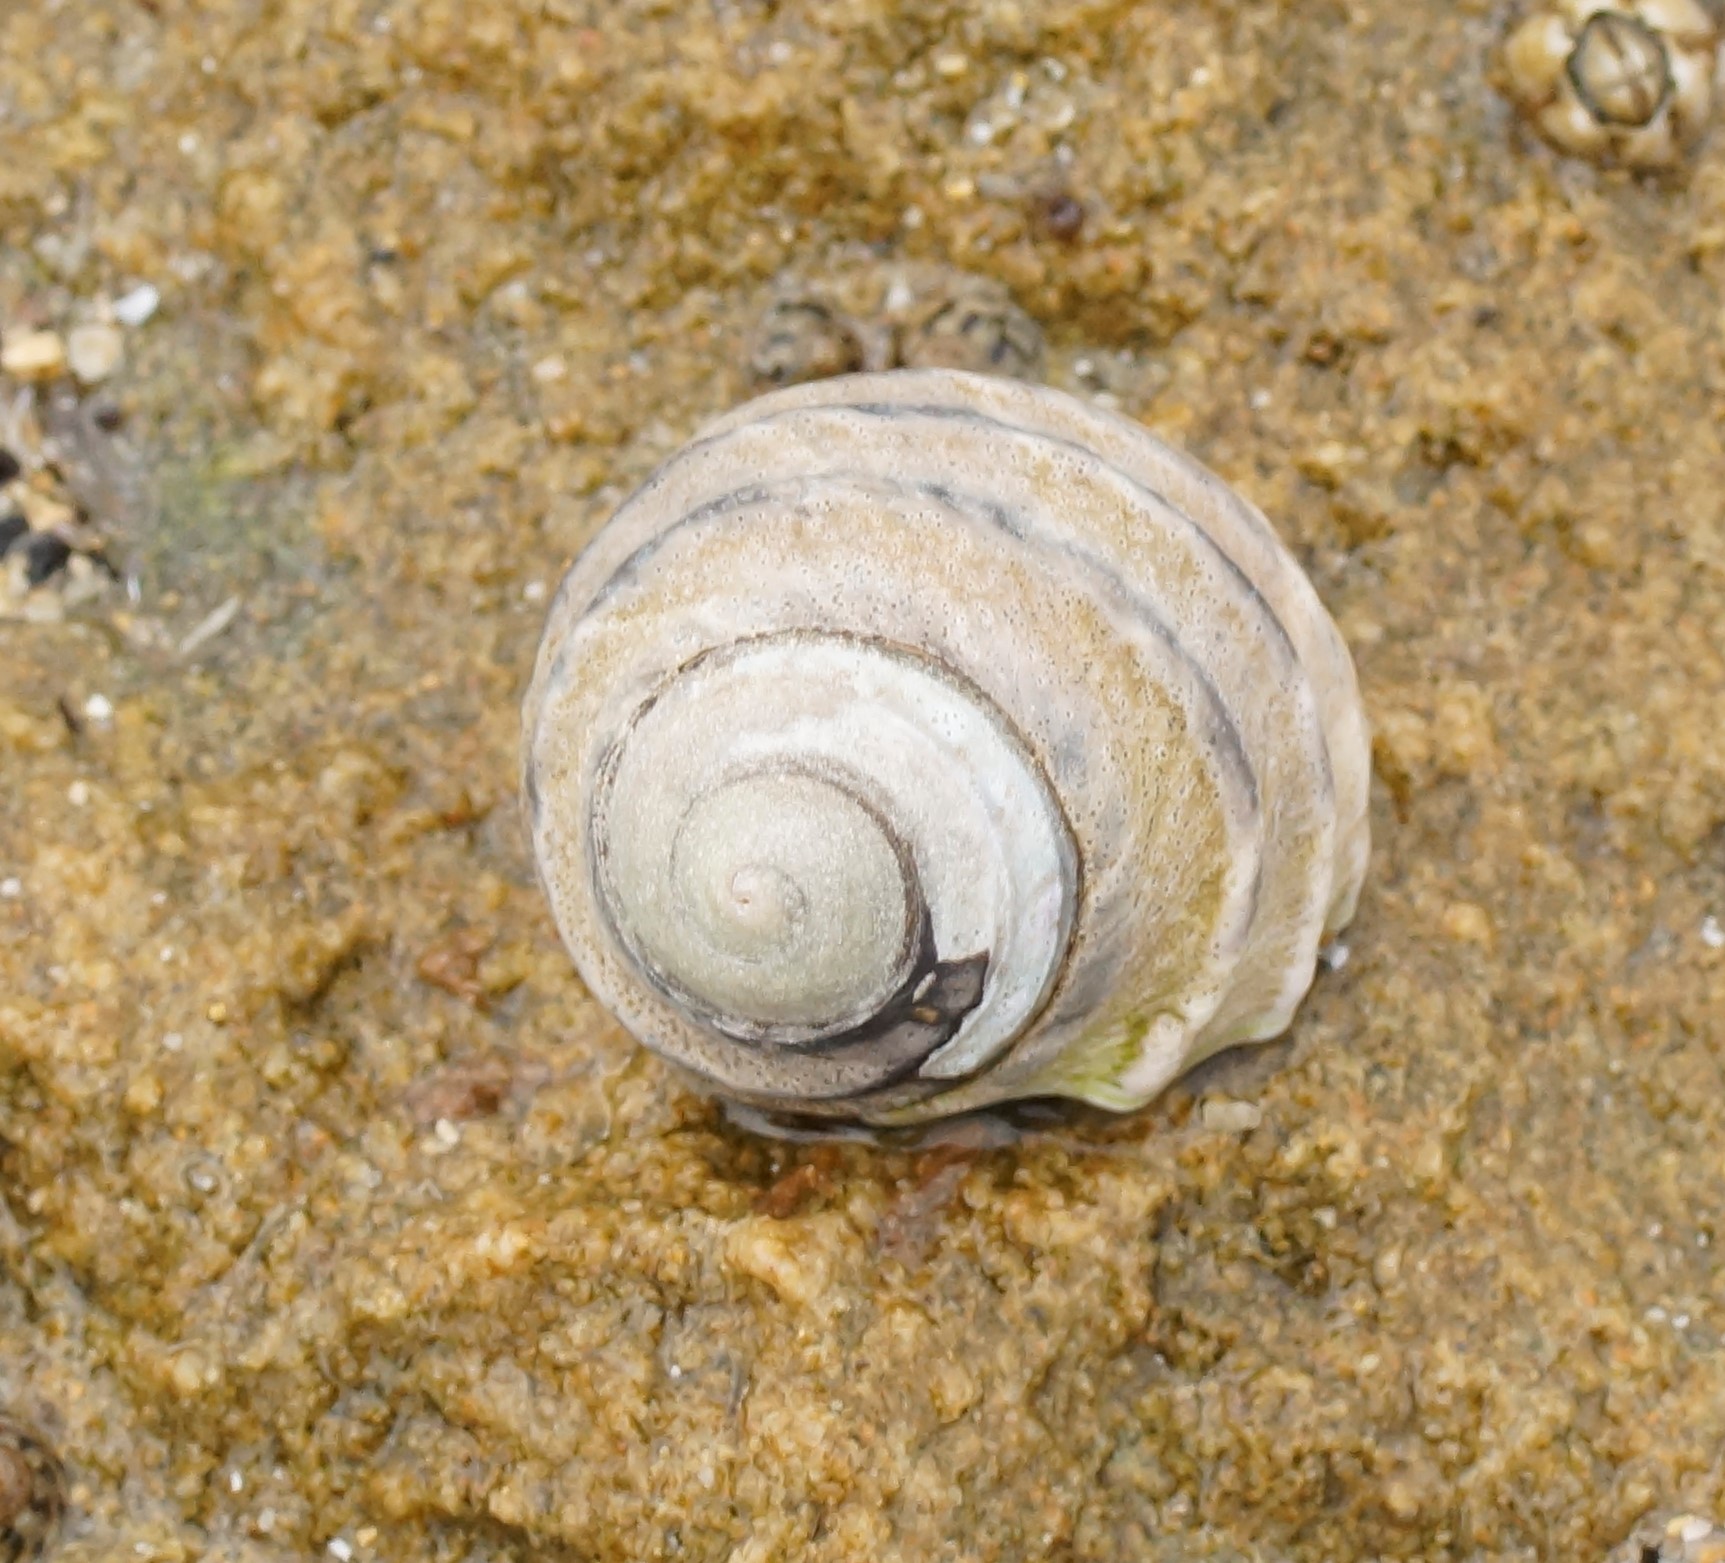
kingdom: Animalia
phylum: Mollusca
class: Gastropoda
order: Trochida
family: Trochidae
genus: Austrocochlea
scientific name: Austrocochlea constricta
